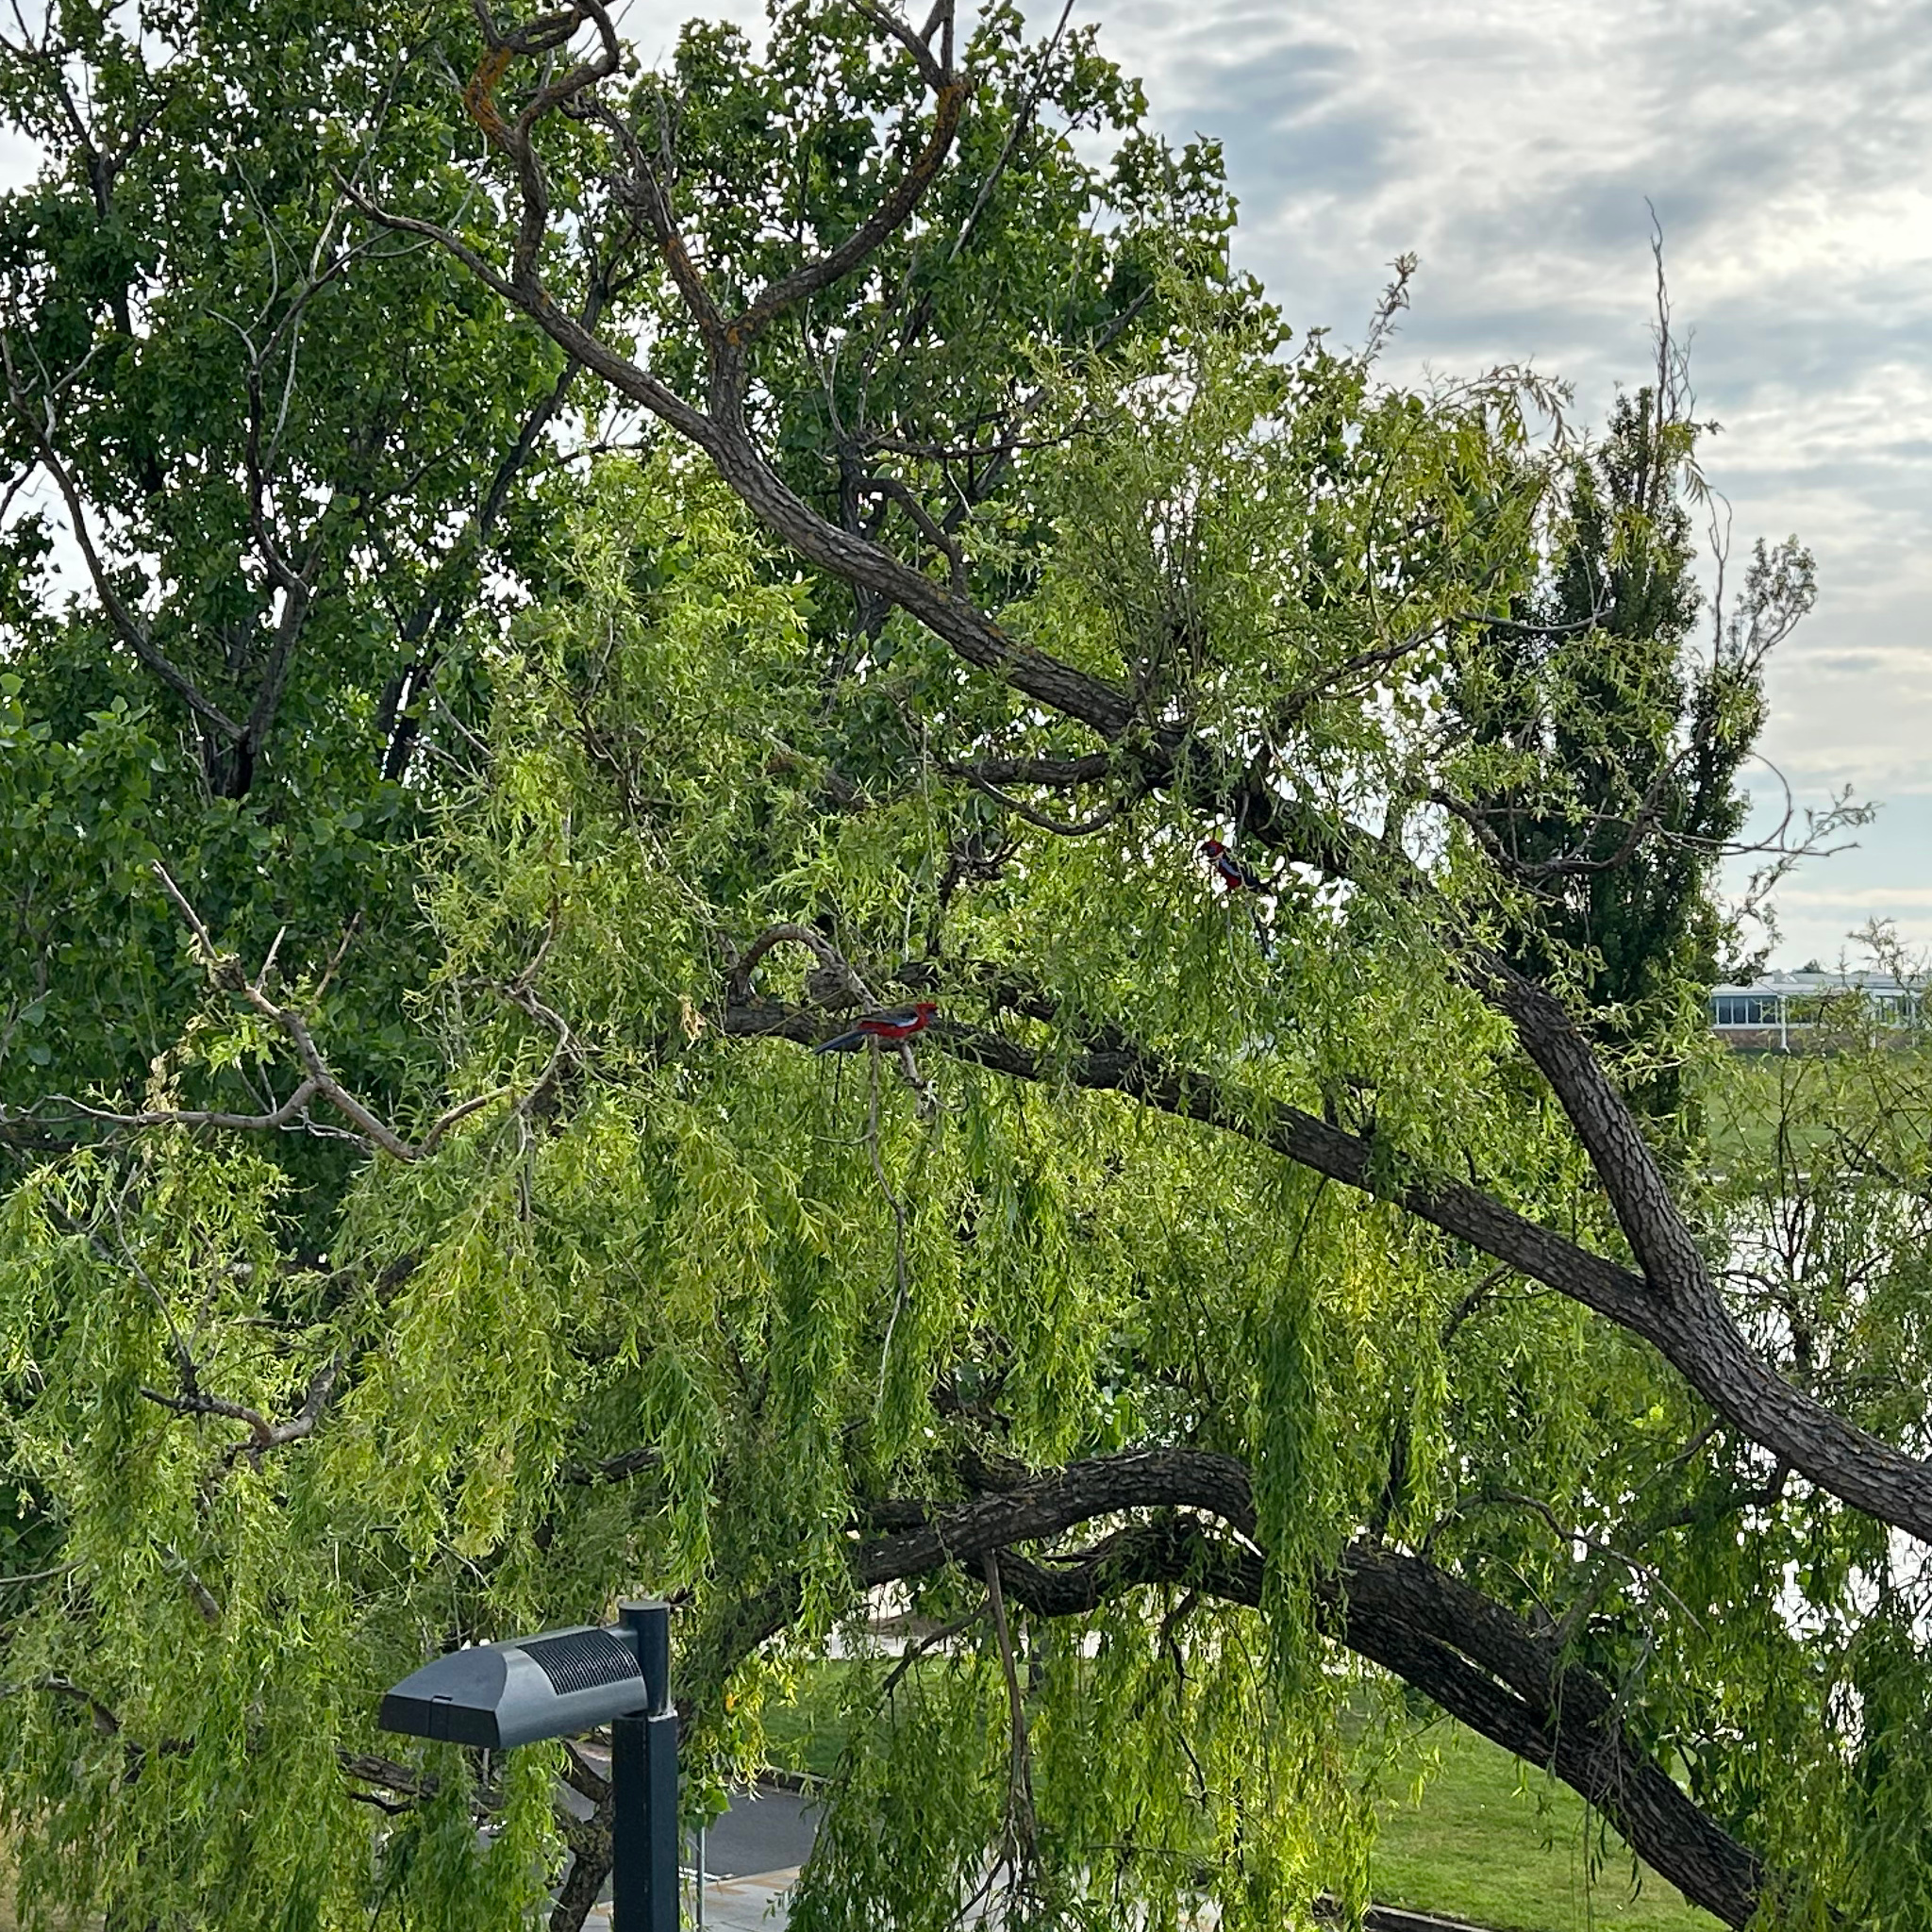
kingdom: Animalia
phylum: Chordata
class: Aves
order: Psittaciformes
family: Psittacidae
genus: Platycercus
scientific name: Platycercus elegans
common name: Crimson rosella
